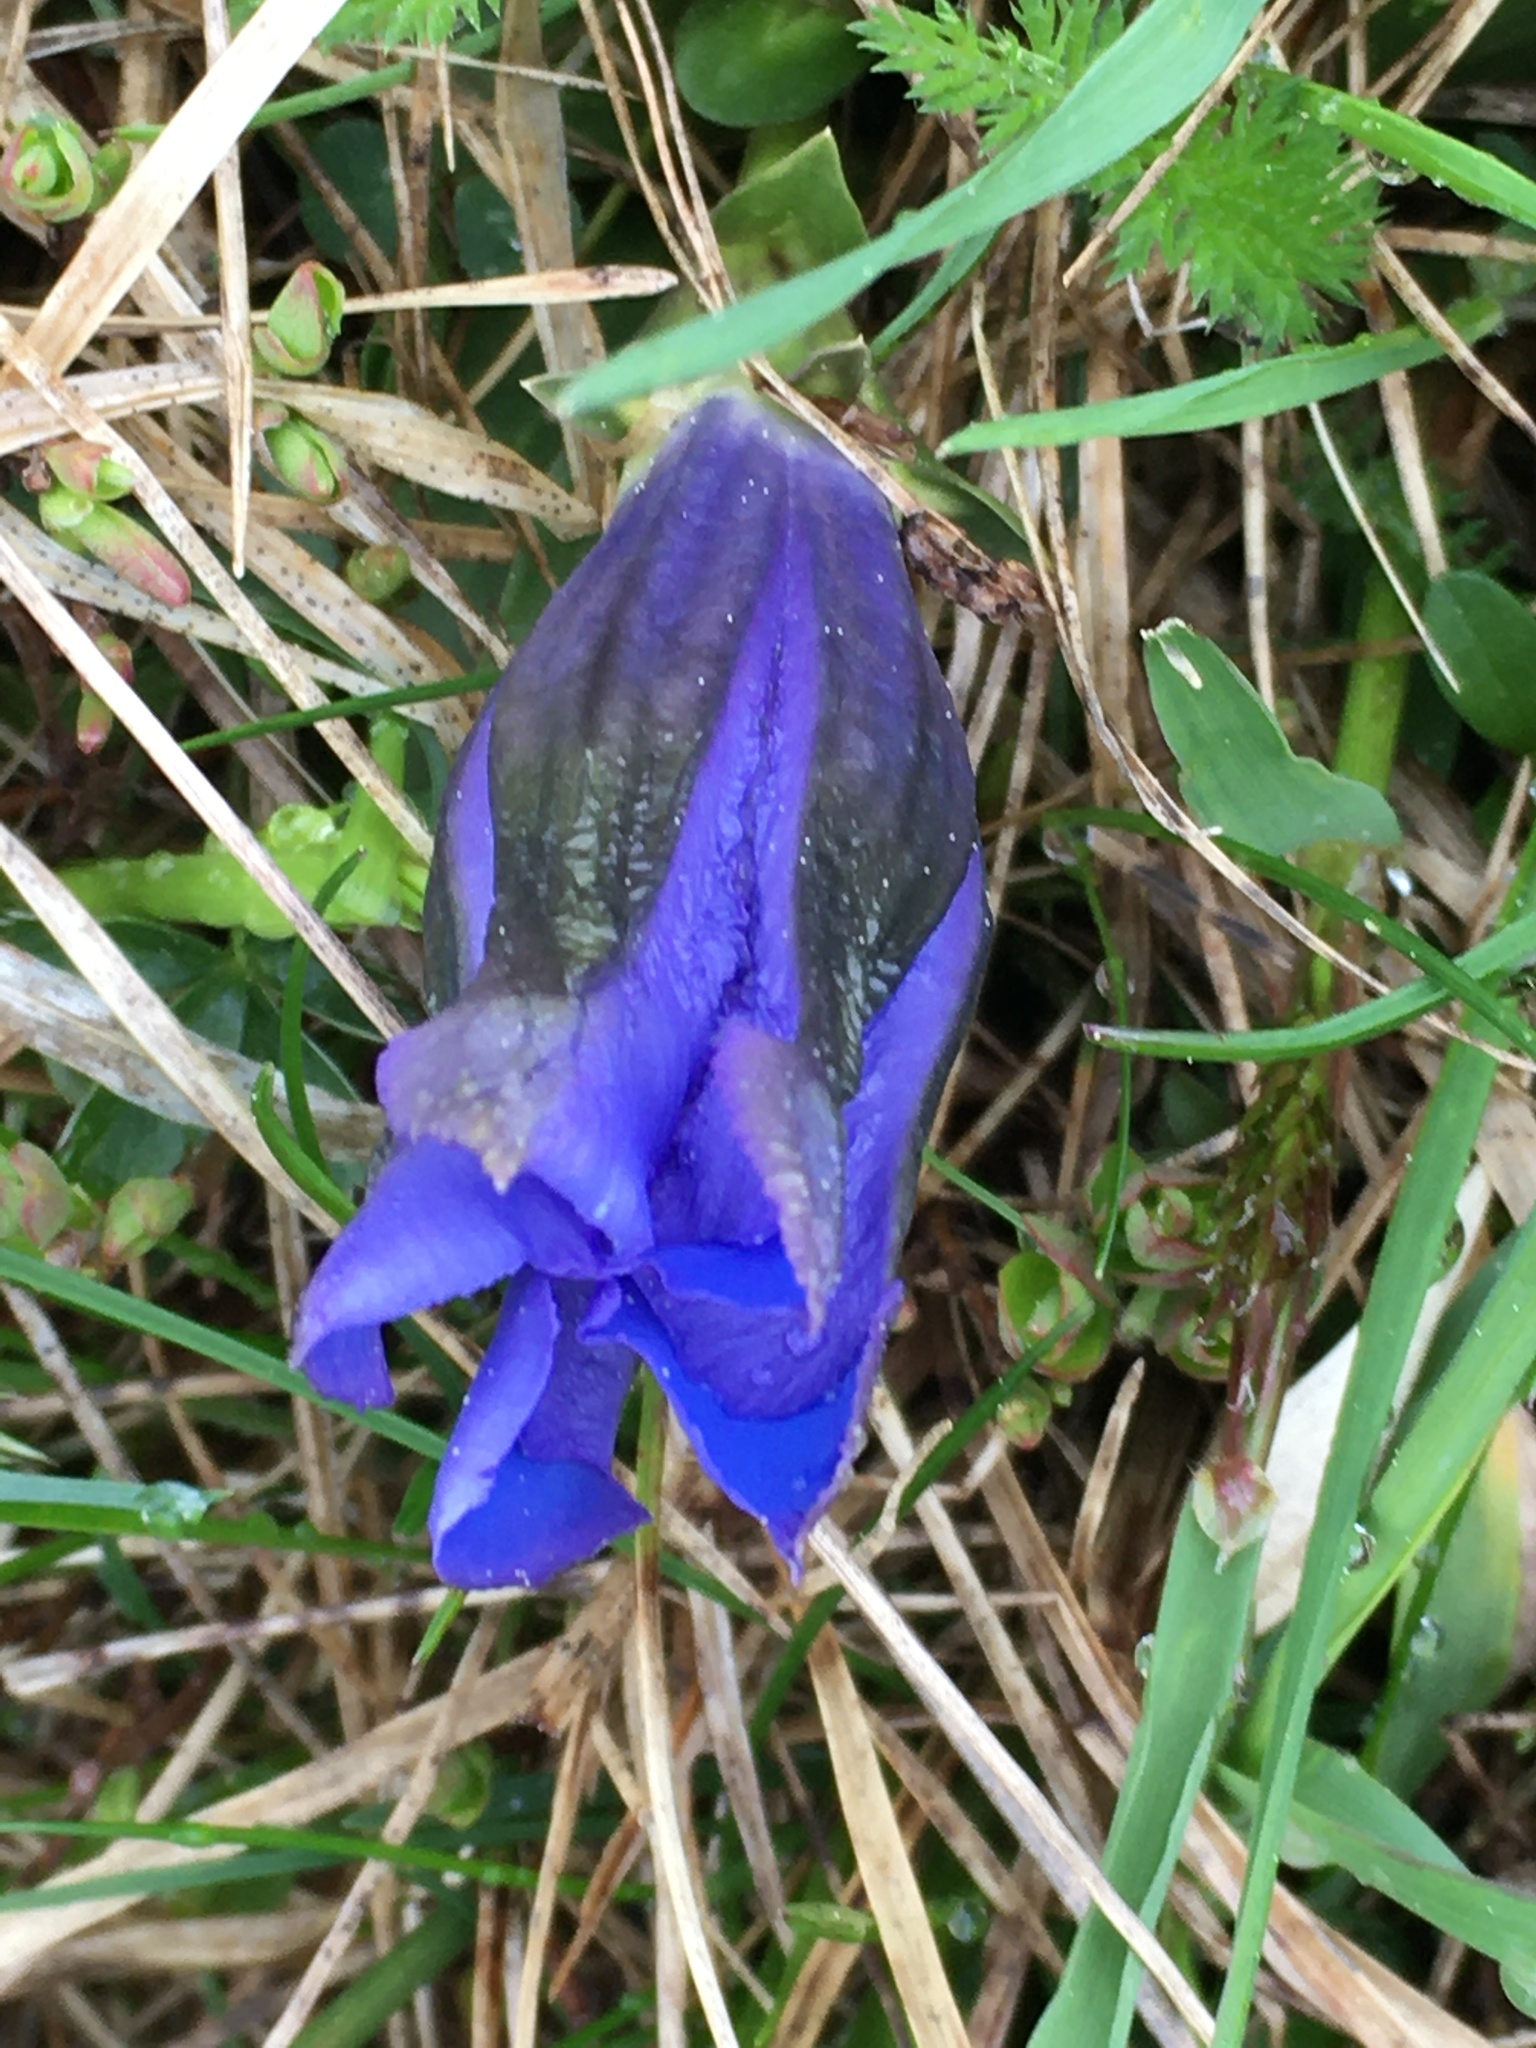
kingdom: Plantae
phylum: Tracheophyta
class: Magnoliopsida
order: Gentianales
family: Gentianaceae
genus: Gentiana
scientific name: Gentiana acaulis
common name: Trumpet gentian
